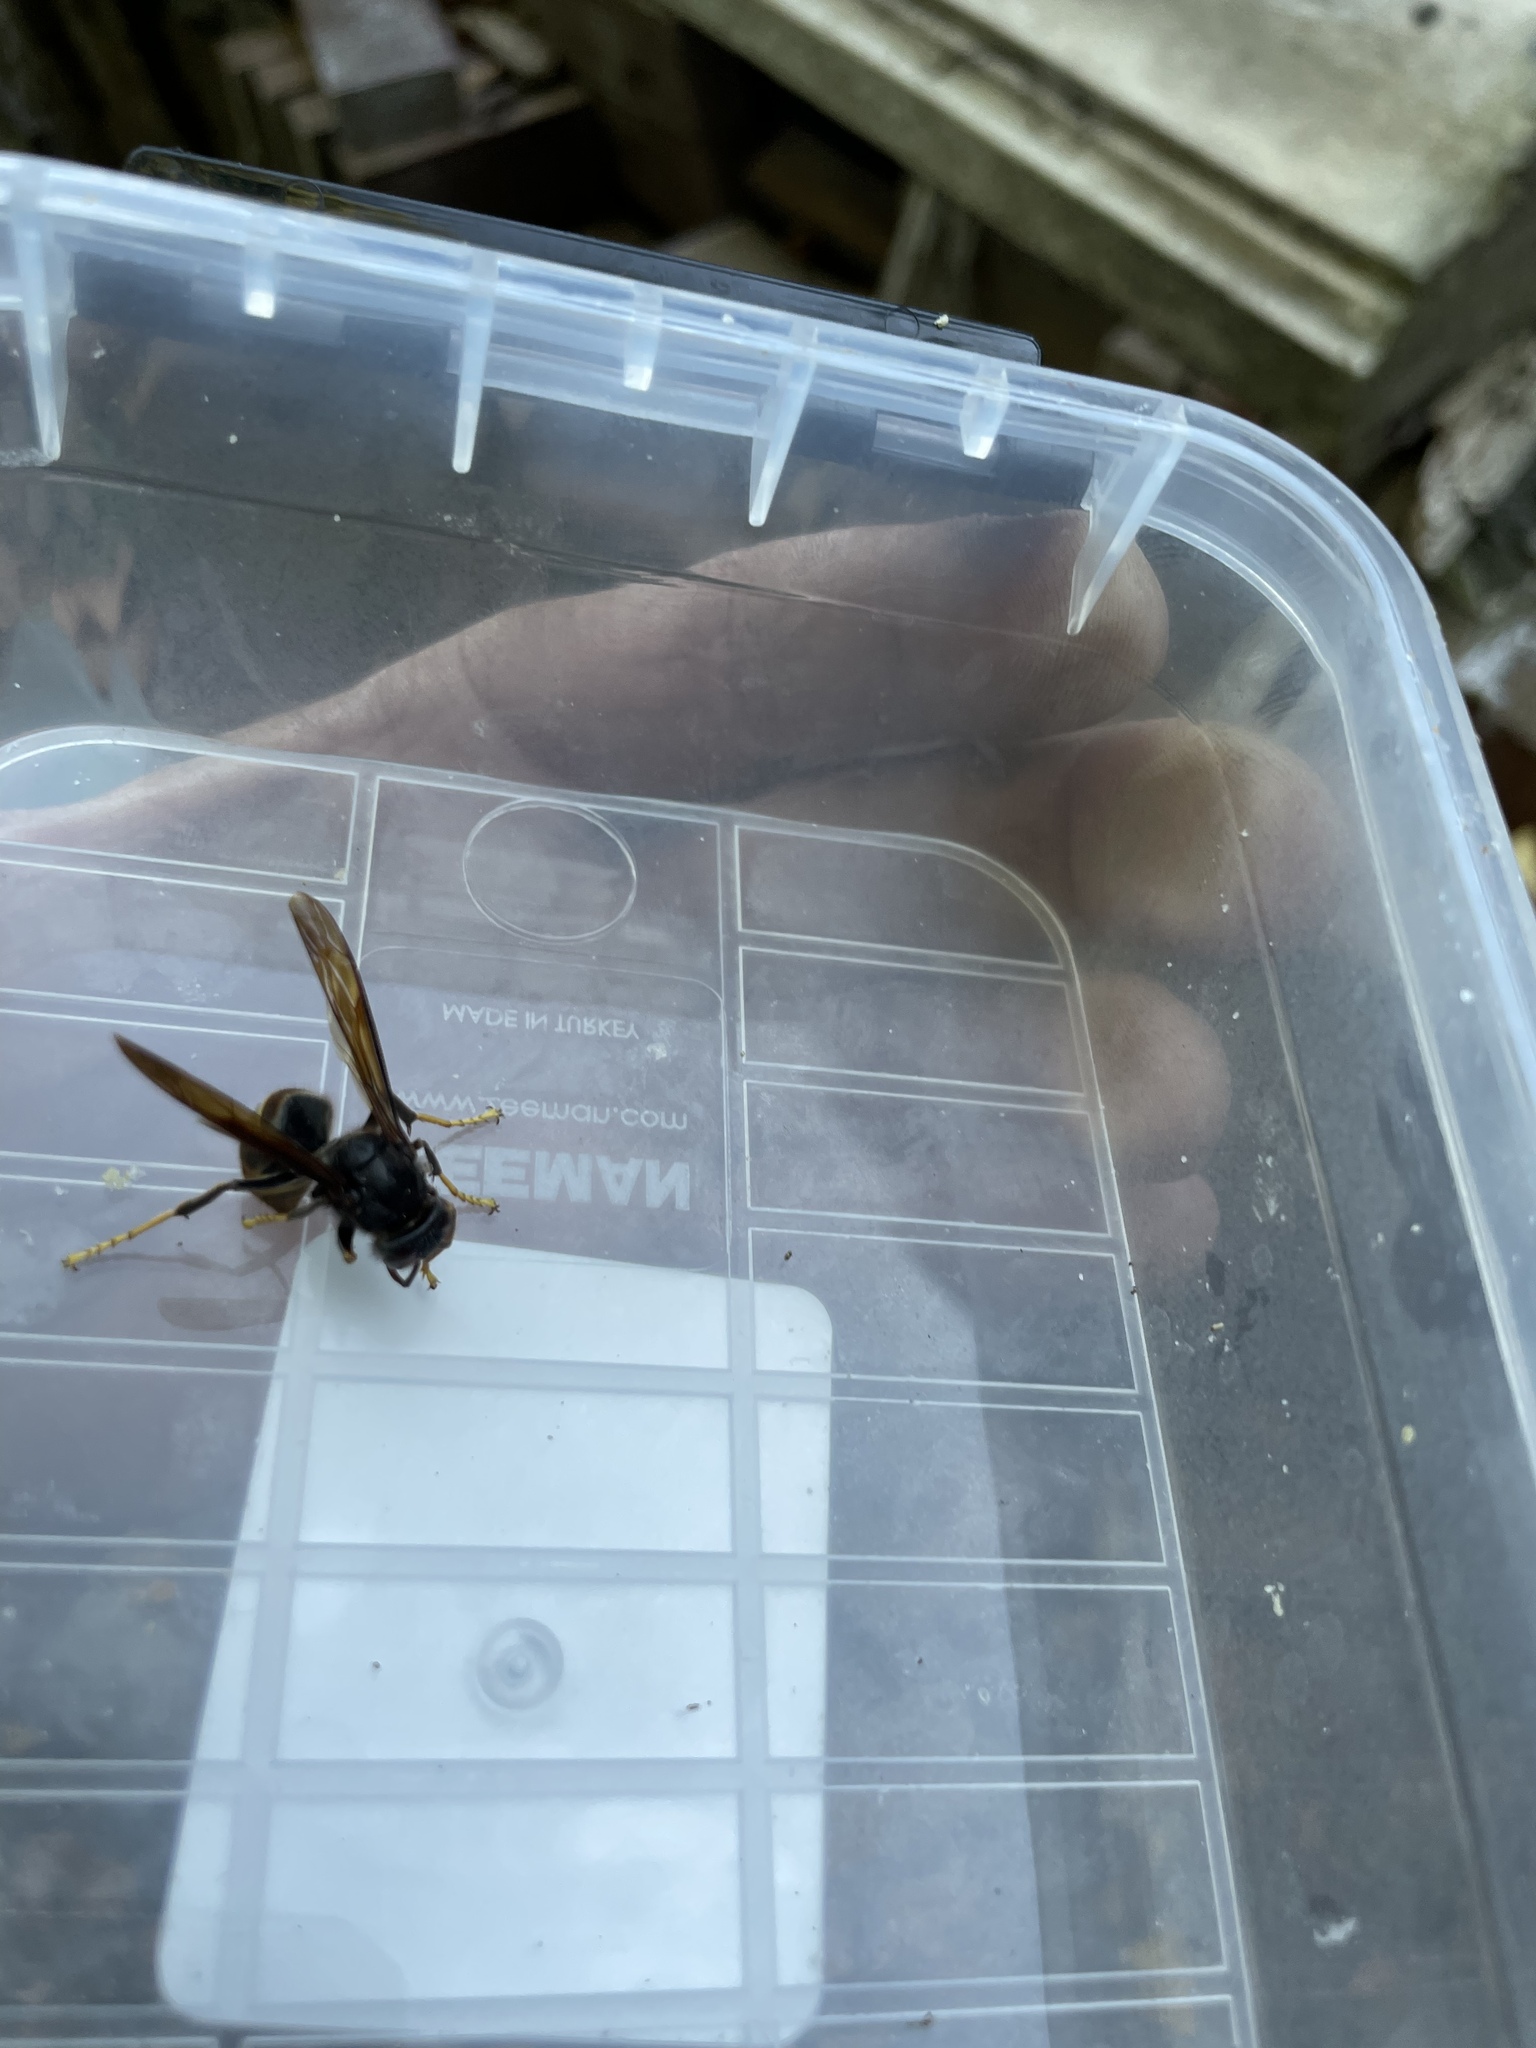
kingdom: Animalia
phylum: Arthropoda
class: Insecta
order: Hymenoptera
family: Vespidae
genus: Vespa
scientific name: Vespa velutina
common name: Asian hornet
